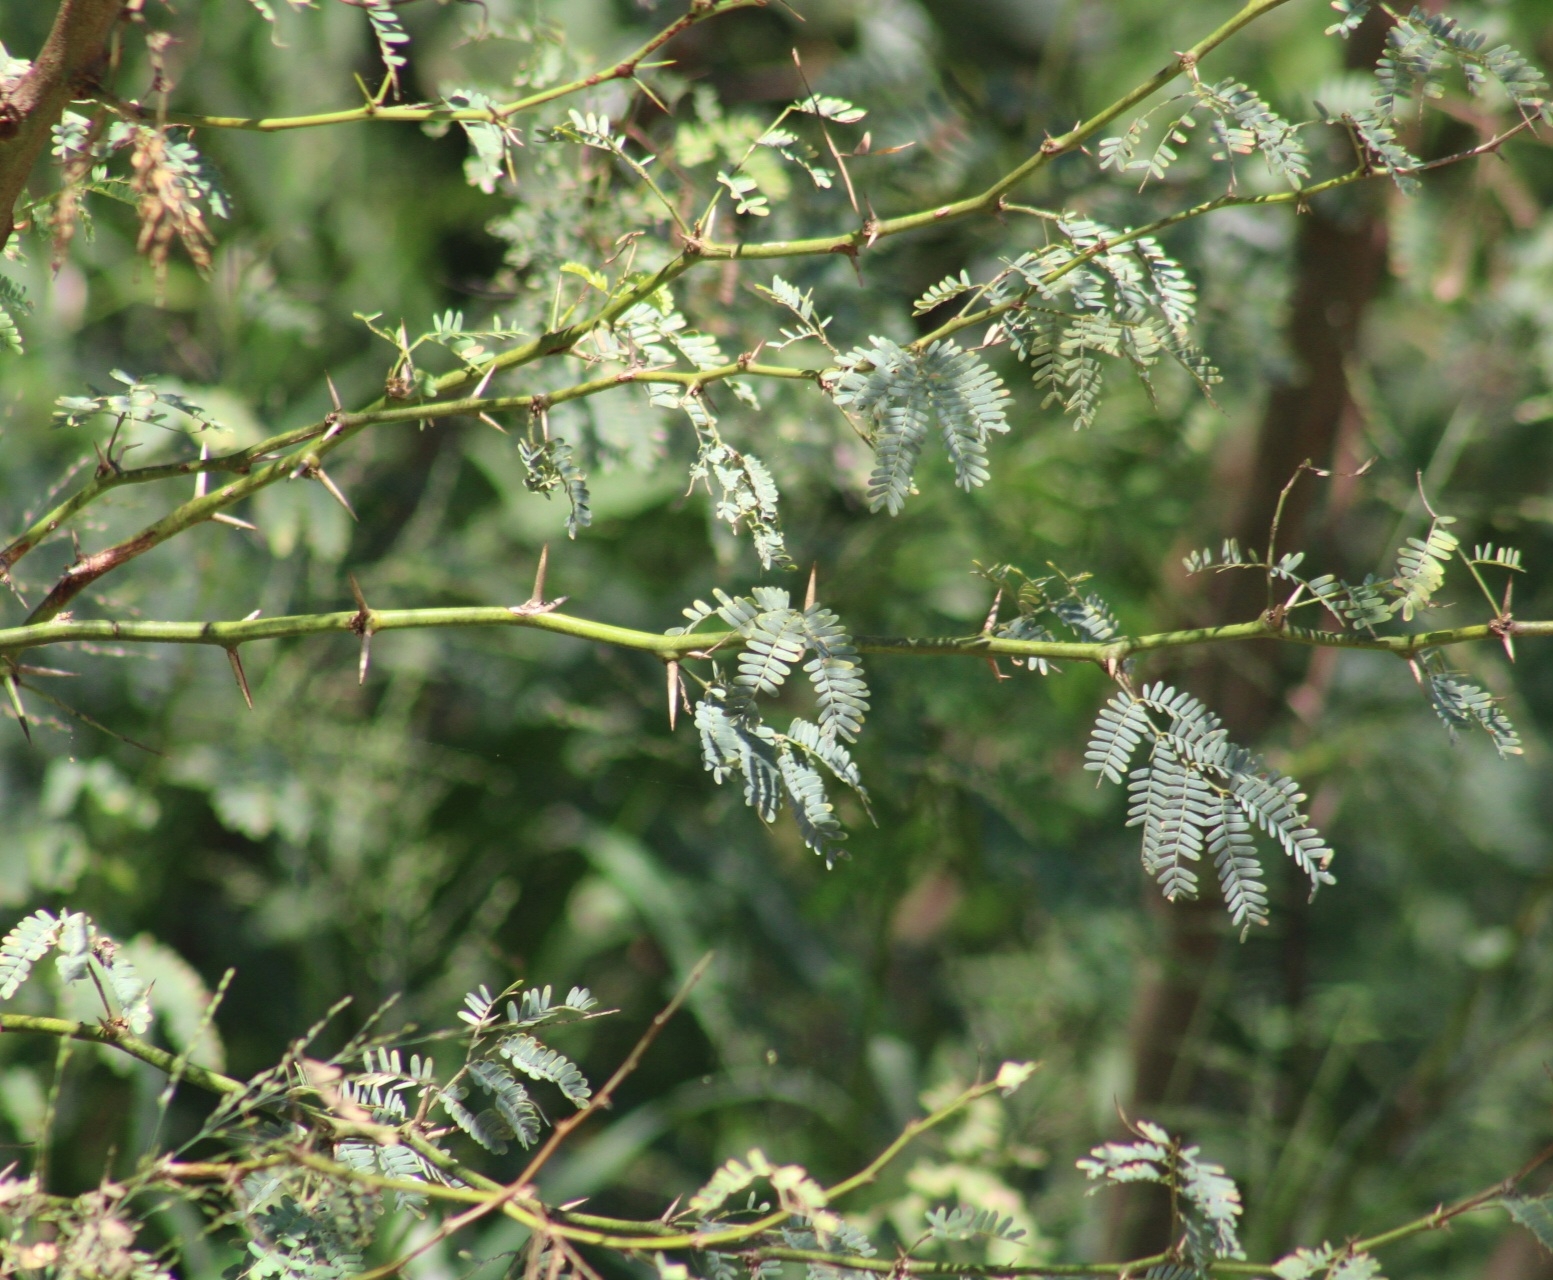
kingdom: Plantae
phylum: Tracheophyta
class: Magnoliopsida
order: Fabales
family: Fabaceae
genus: Prosopis
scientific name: Prosopis pallida
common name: Mesquite
